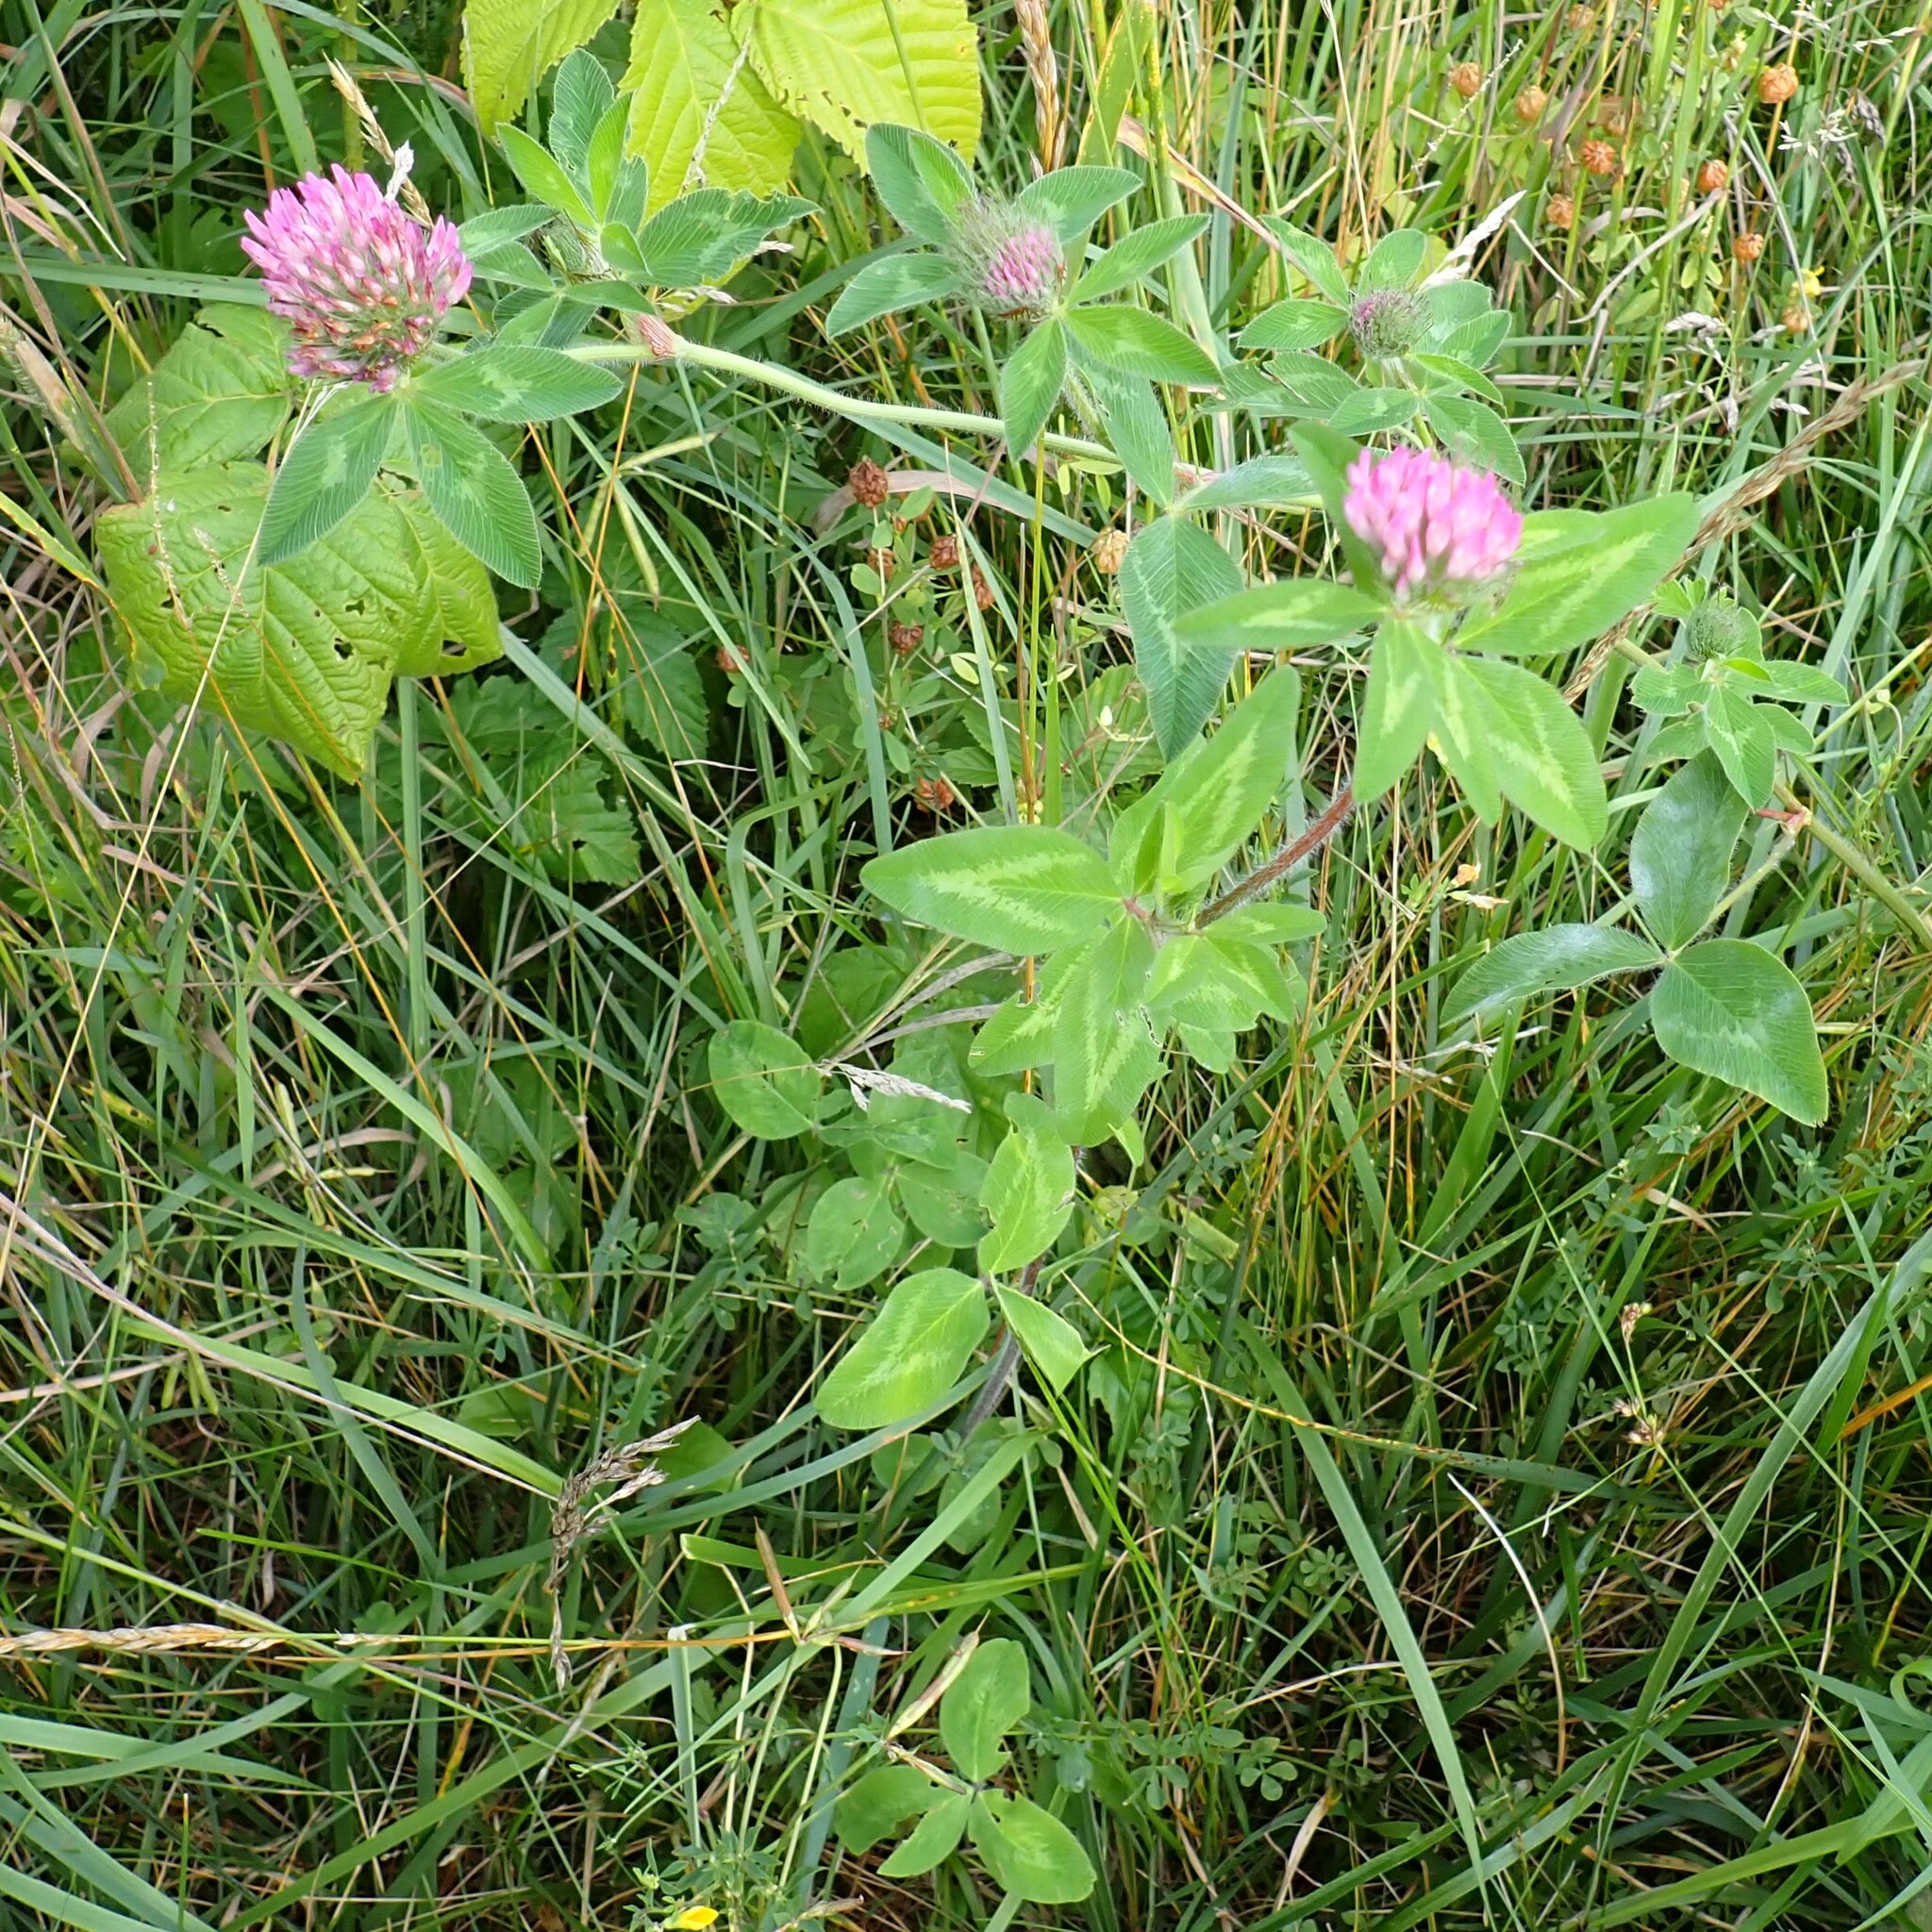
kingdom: Plantae
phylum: Tracheophyta
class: Magnoliopsida
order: Fabales
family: Fabaceae
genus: Trifolium
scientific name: Trifolium pratense
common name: Red clover
